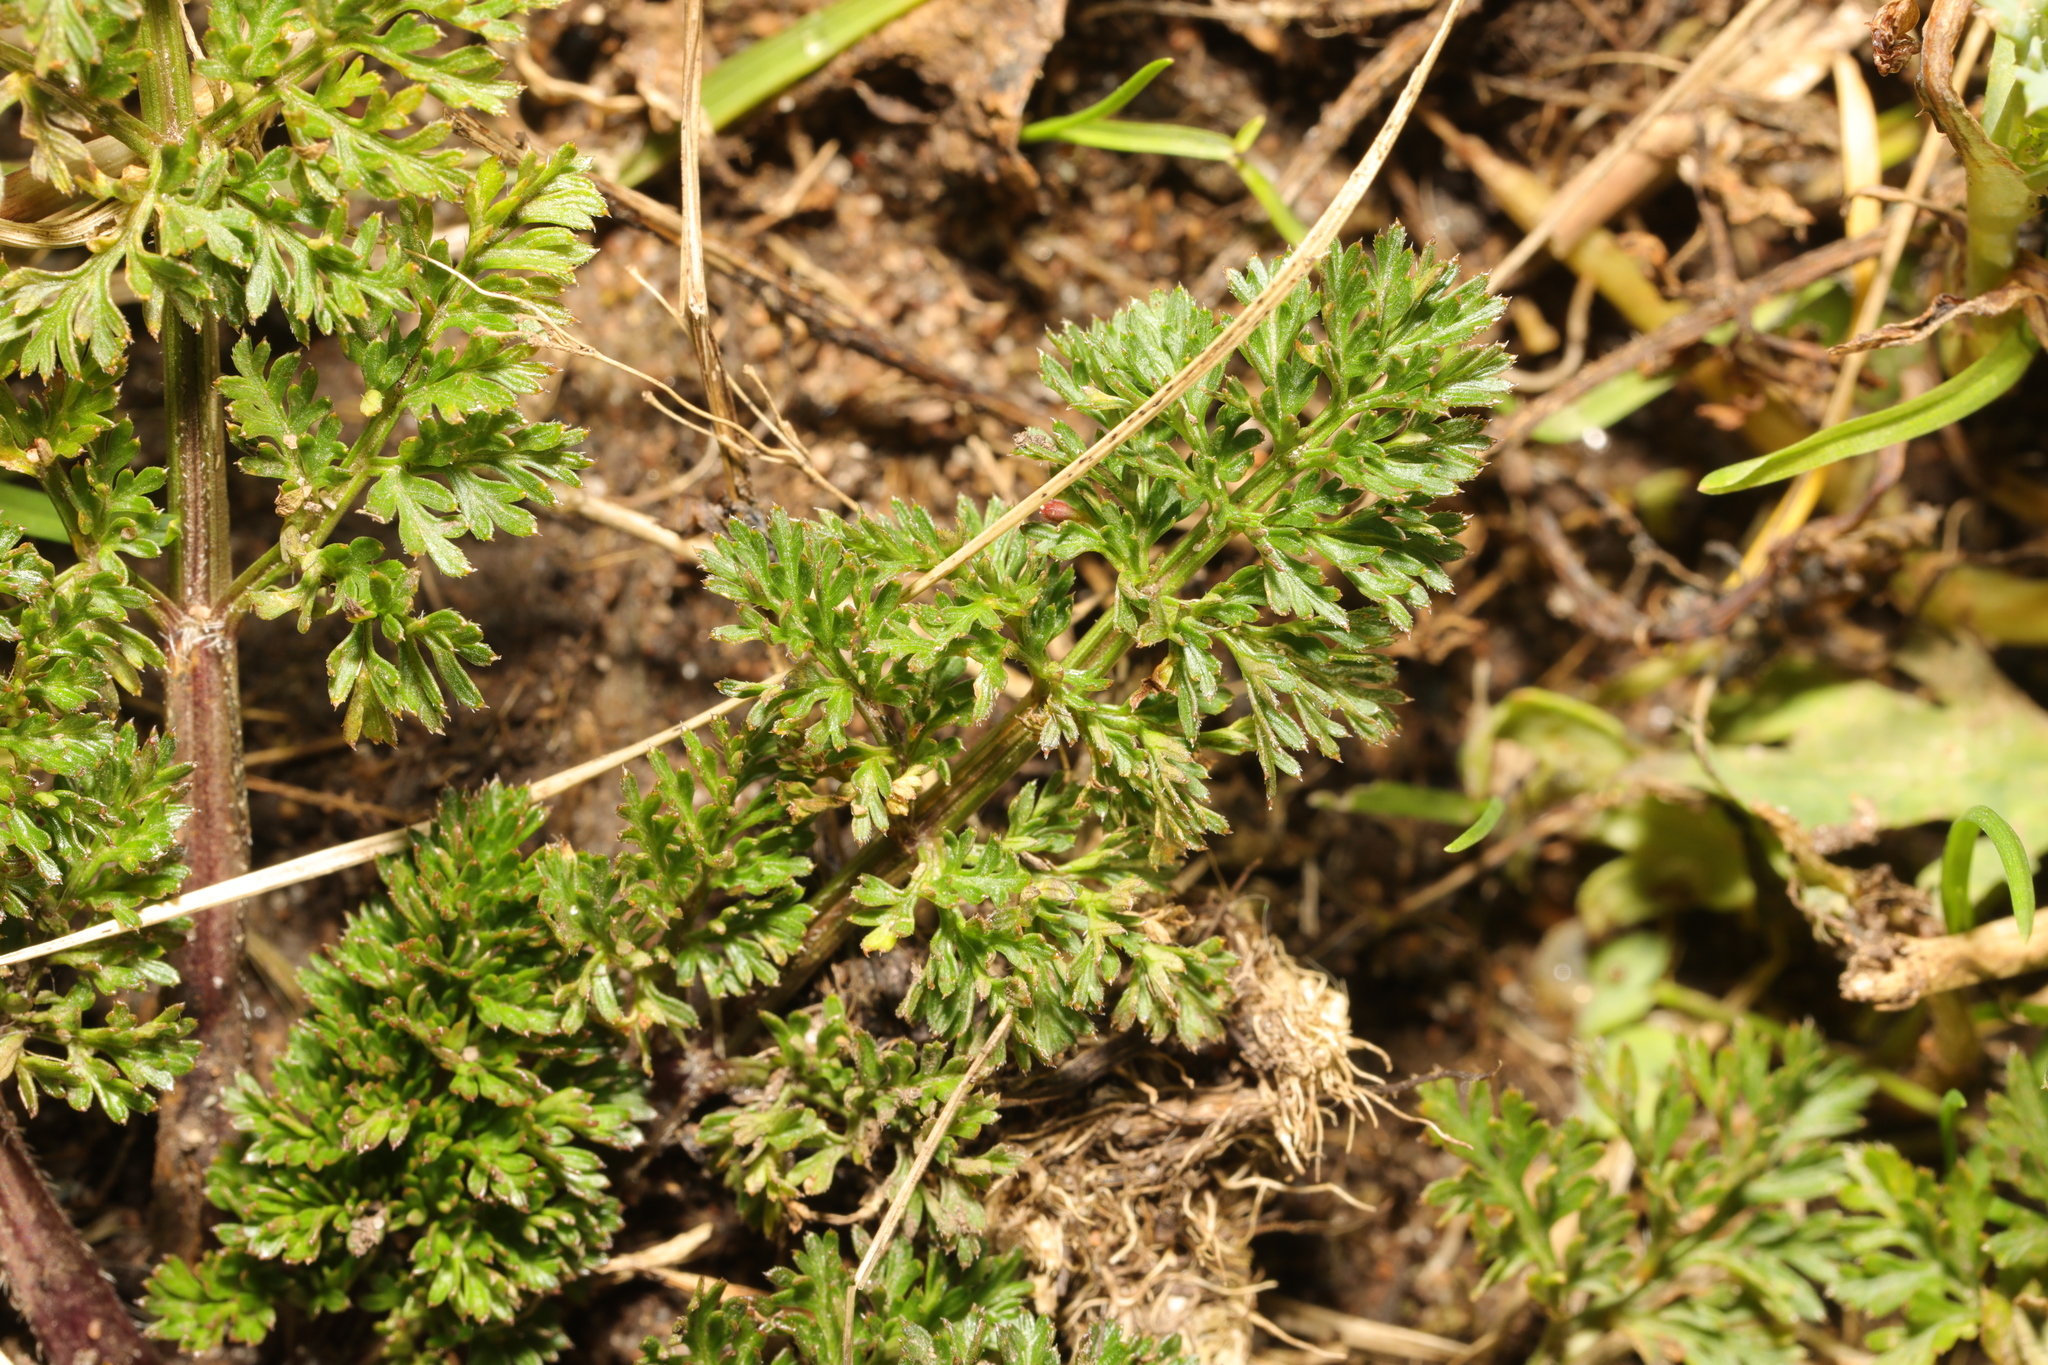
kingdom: Plantae
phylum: Tracheophyta
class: Magnoliopsida
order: Apiales
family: Apiaceae
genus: Daucus
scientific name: Daucus carota
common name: Wild carrot
